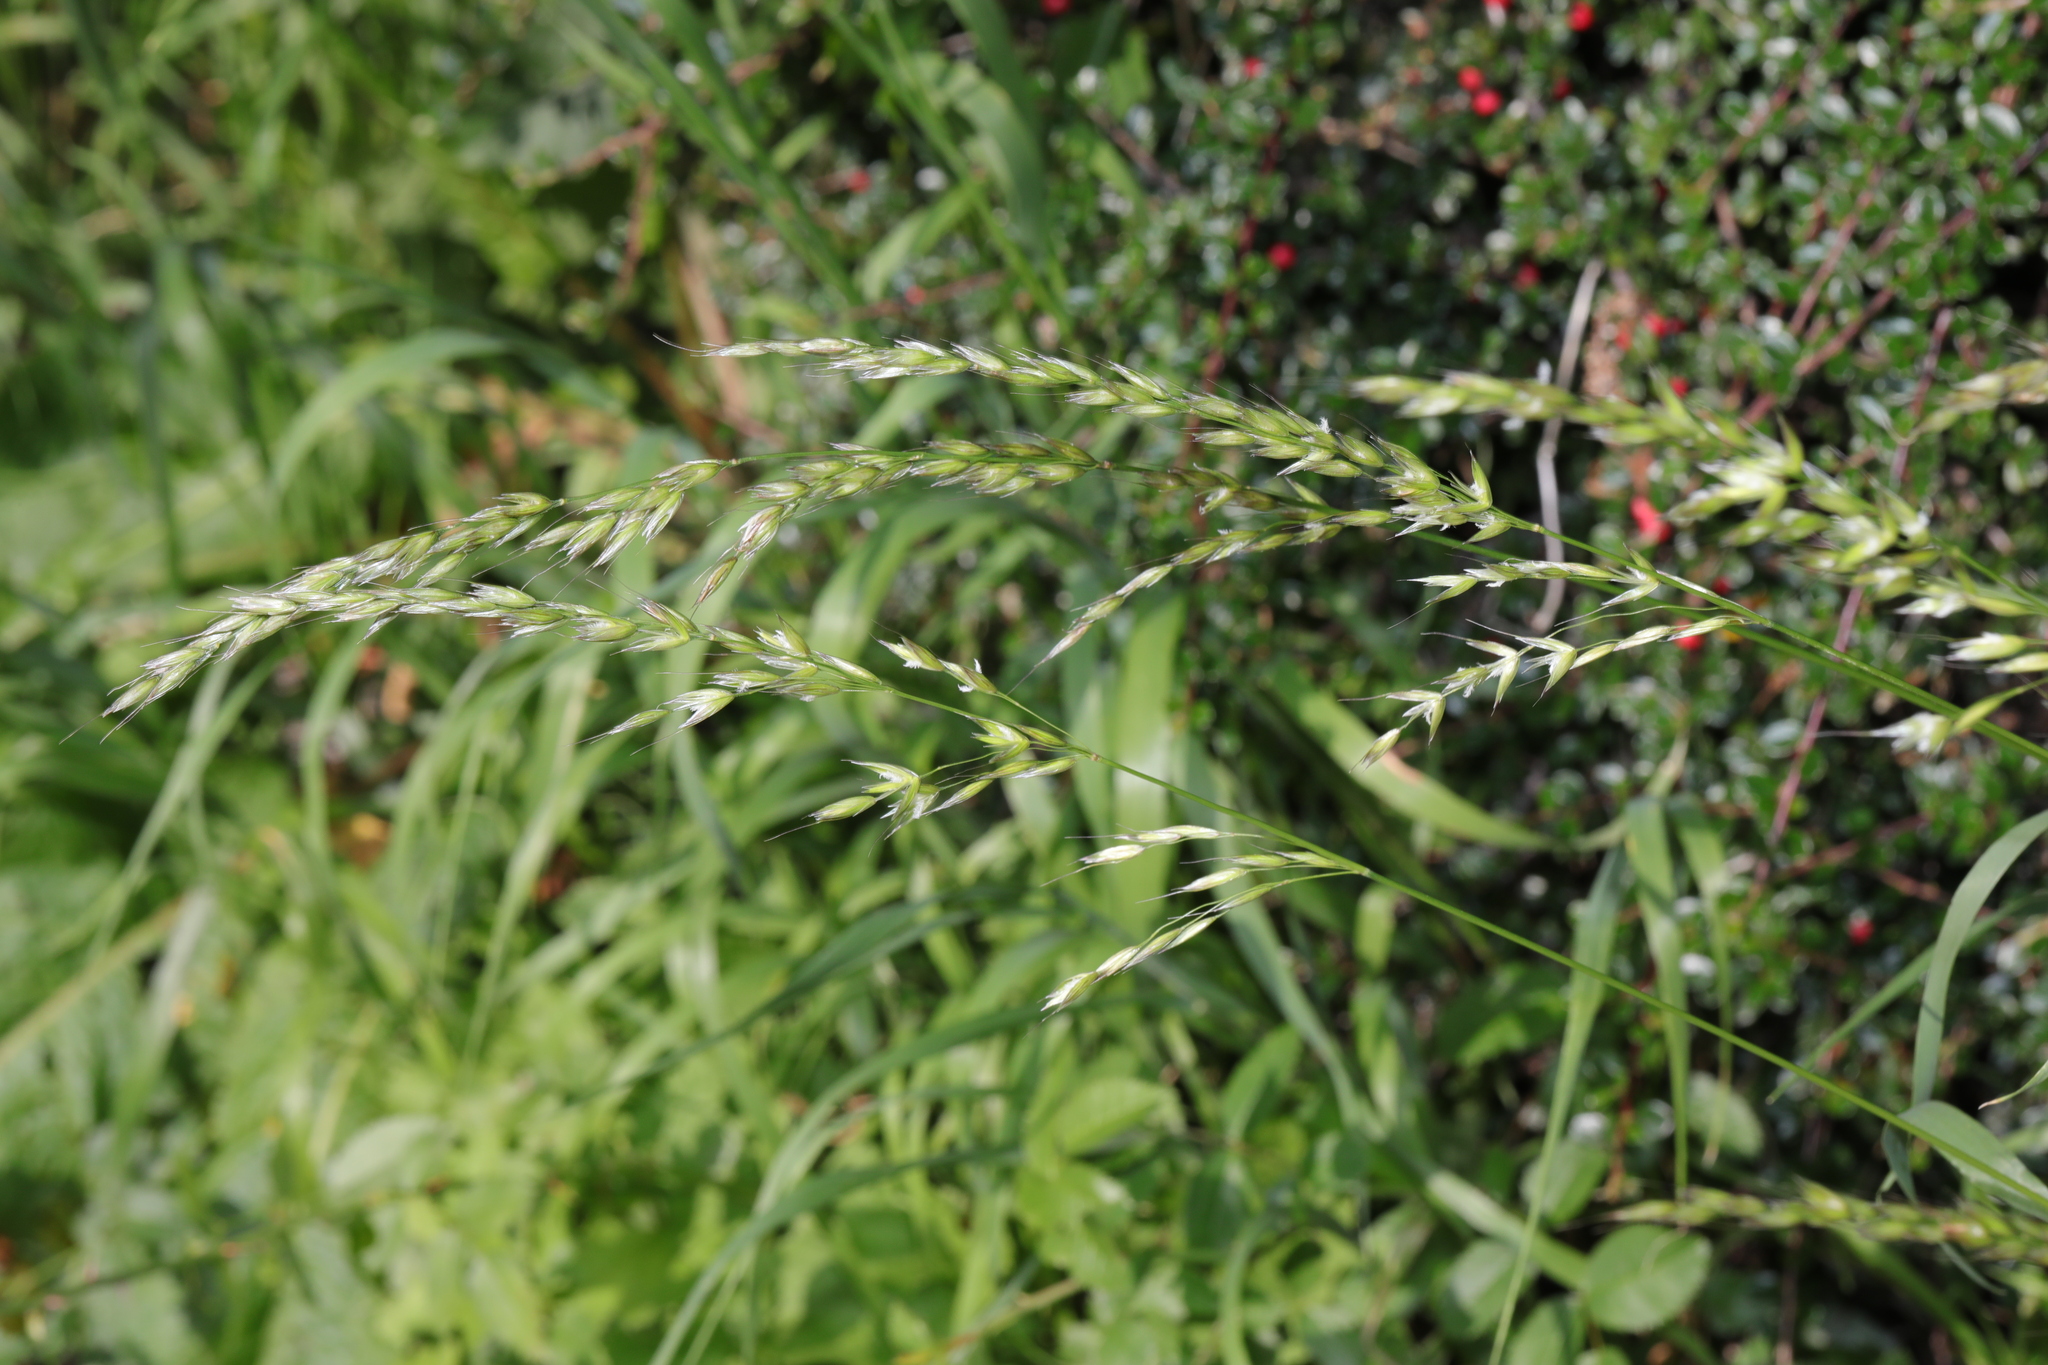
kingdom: Plantae
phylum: Tracheophyta
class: Liliopsida
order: Poales
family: Poaceae
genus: Arrhenatherum
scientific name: Arrhenatherum elatius
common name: Tall oatgrass
